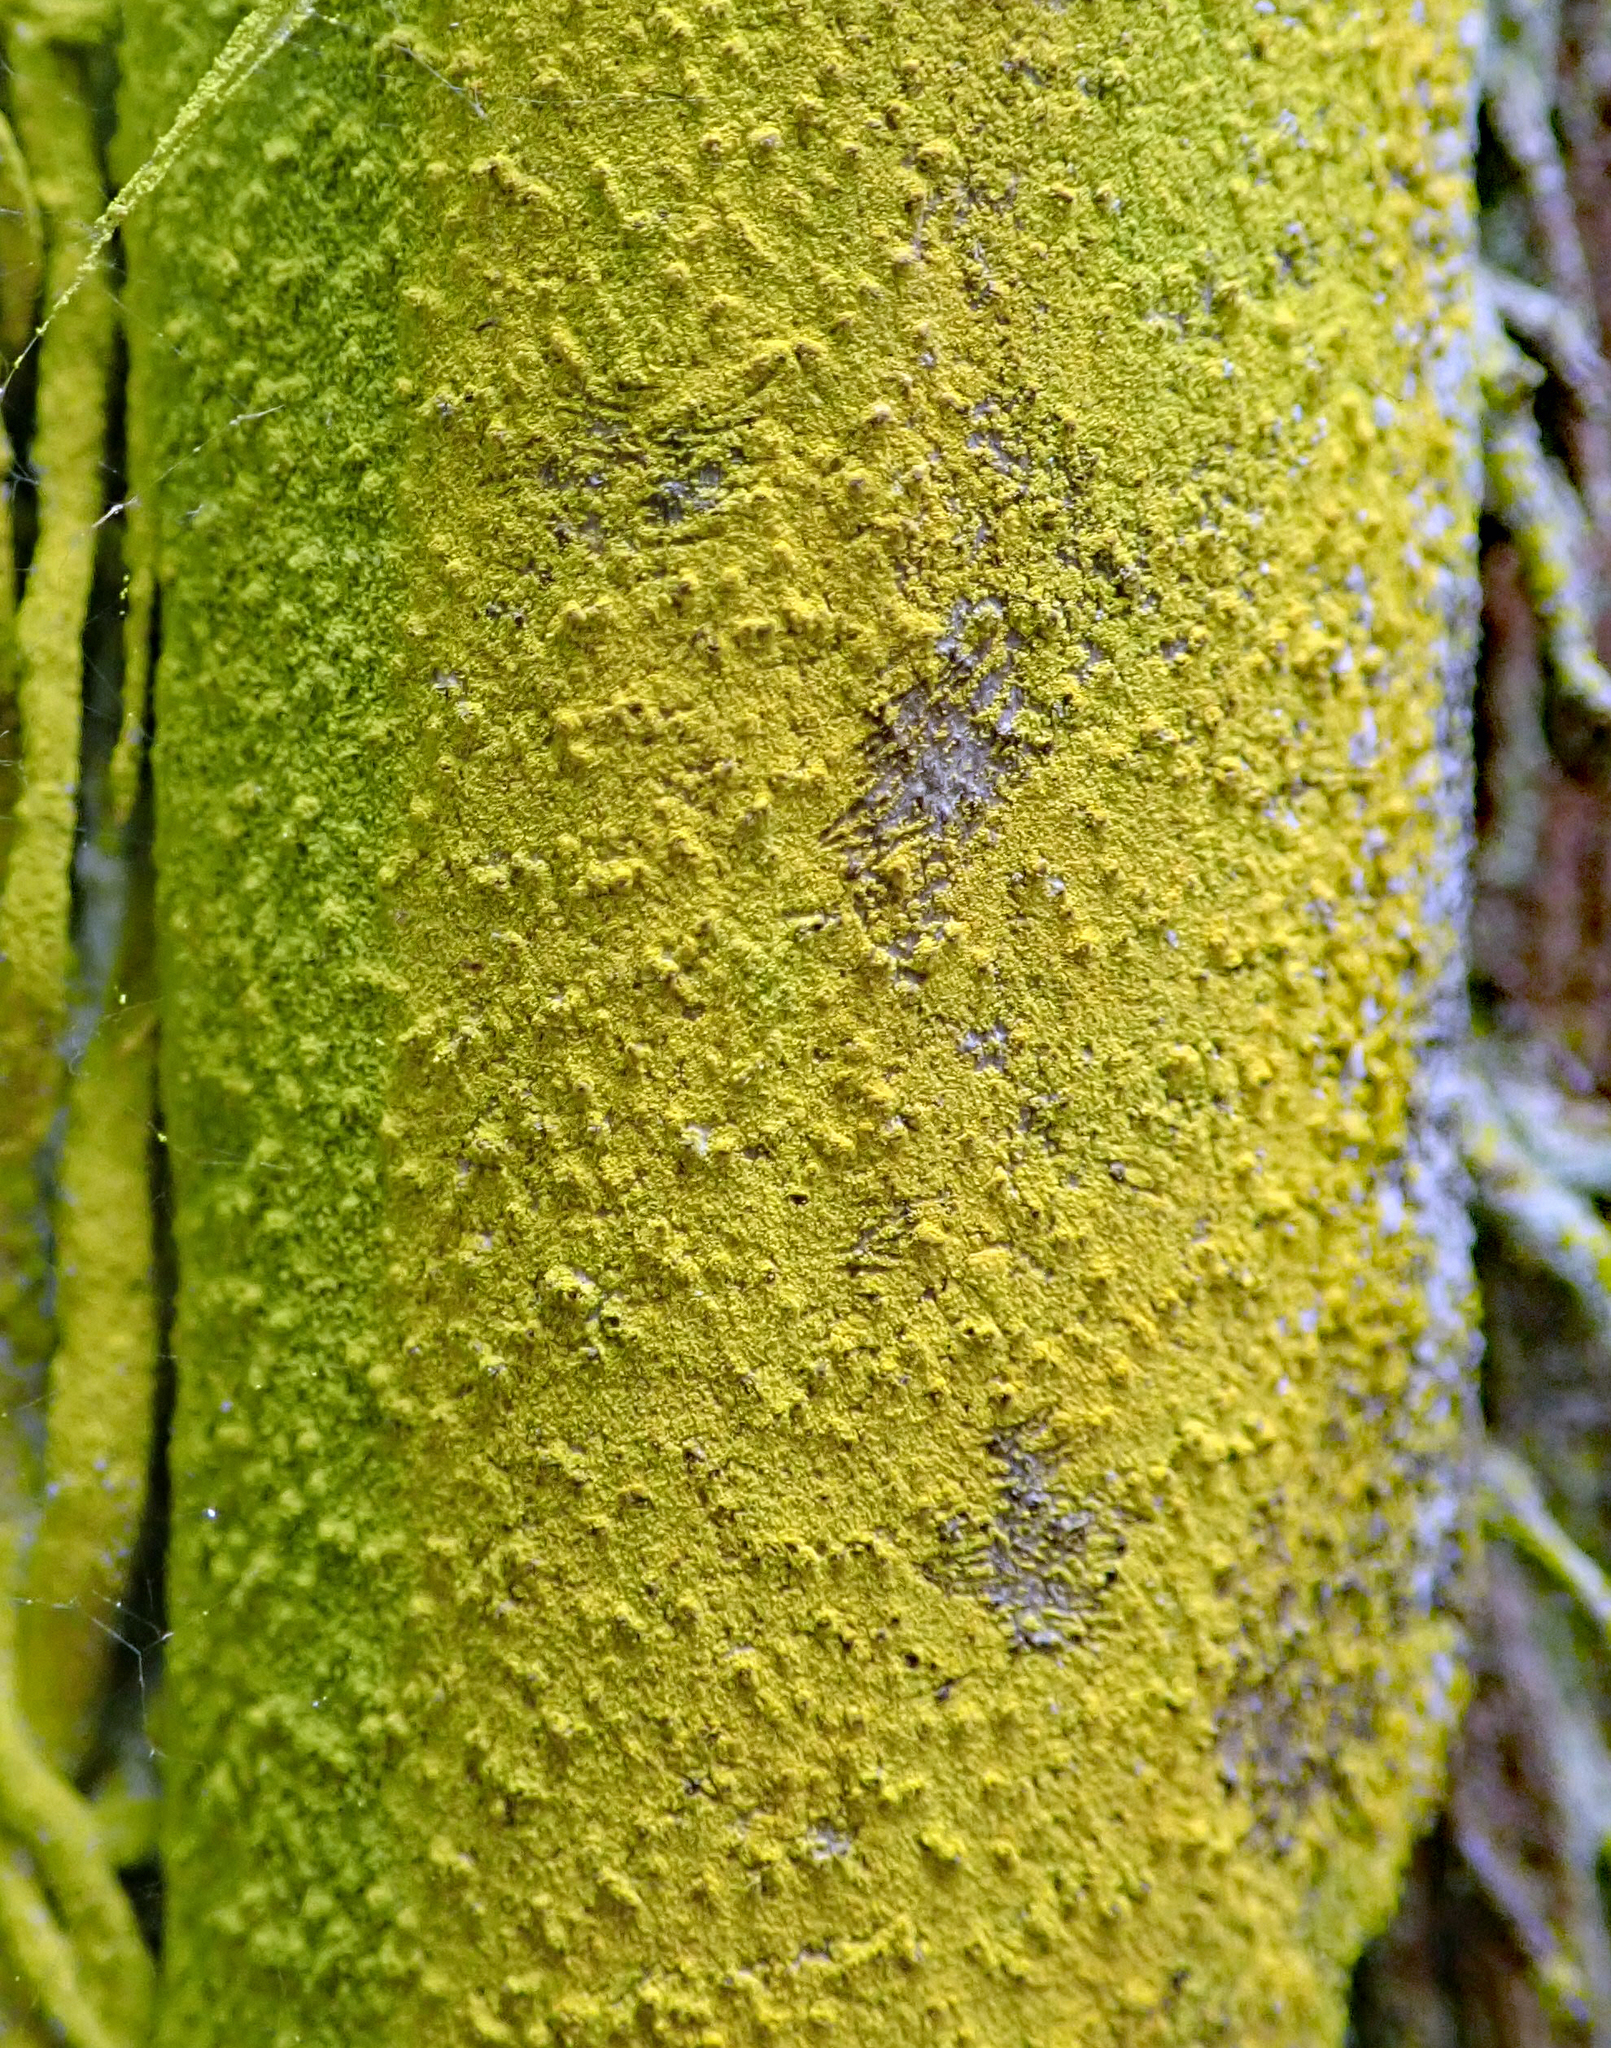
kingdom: Fungi
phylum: Ascomycota
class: Arthoniomycetes
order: Arthoniales
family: Chrysotrichaceae
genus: Chrysothrix
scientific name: Chrysothrix xanthina
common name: Common gold-dust
